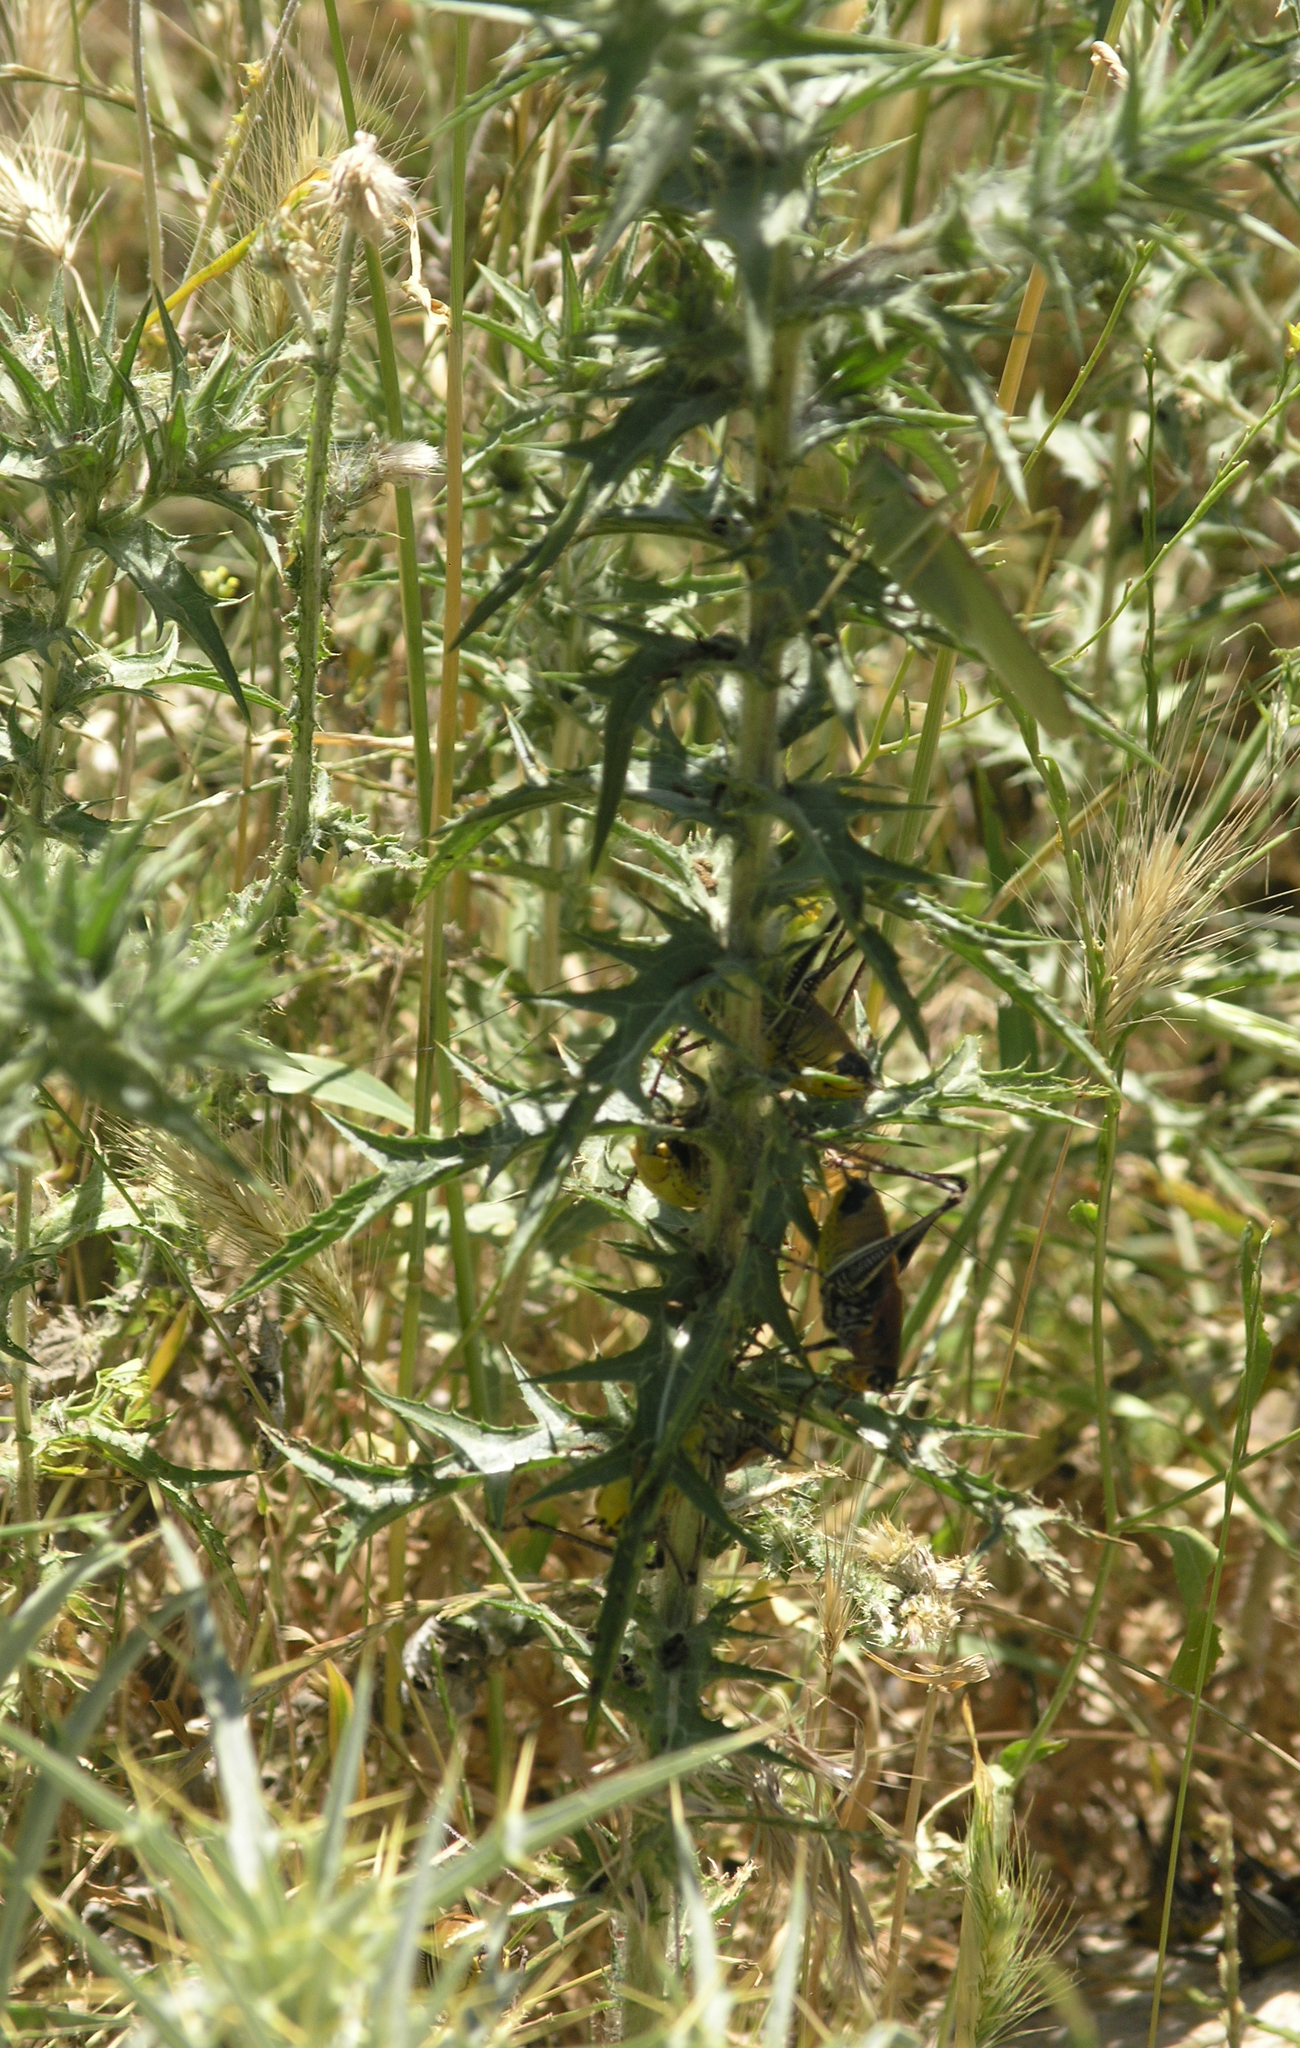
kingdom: Animalia
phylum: Arthropoda
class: Insecta
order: Orthoptera
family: Tettigoniidae
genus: Uvarovistia
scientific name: Uvarovistia satunini
